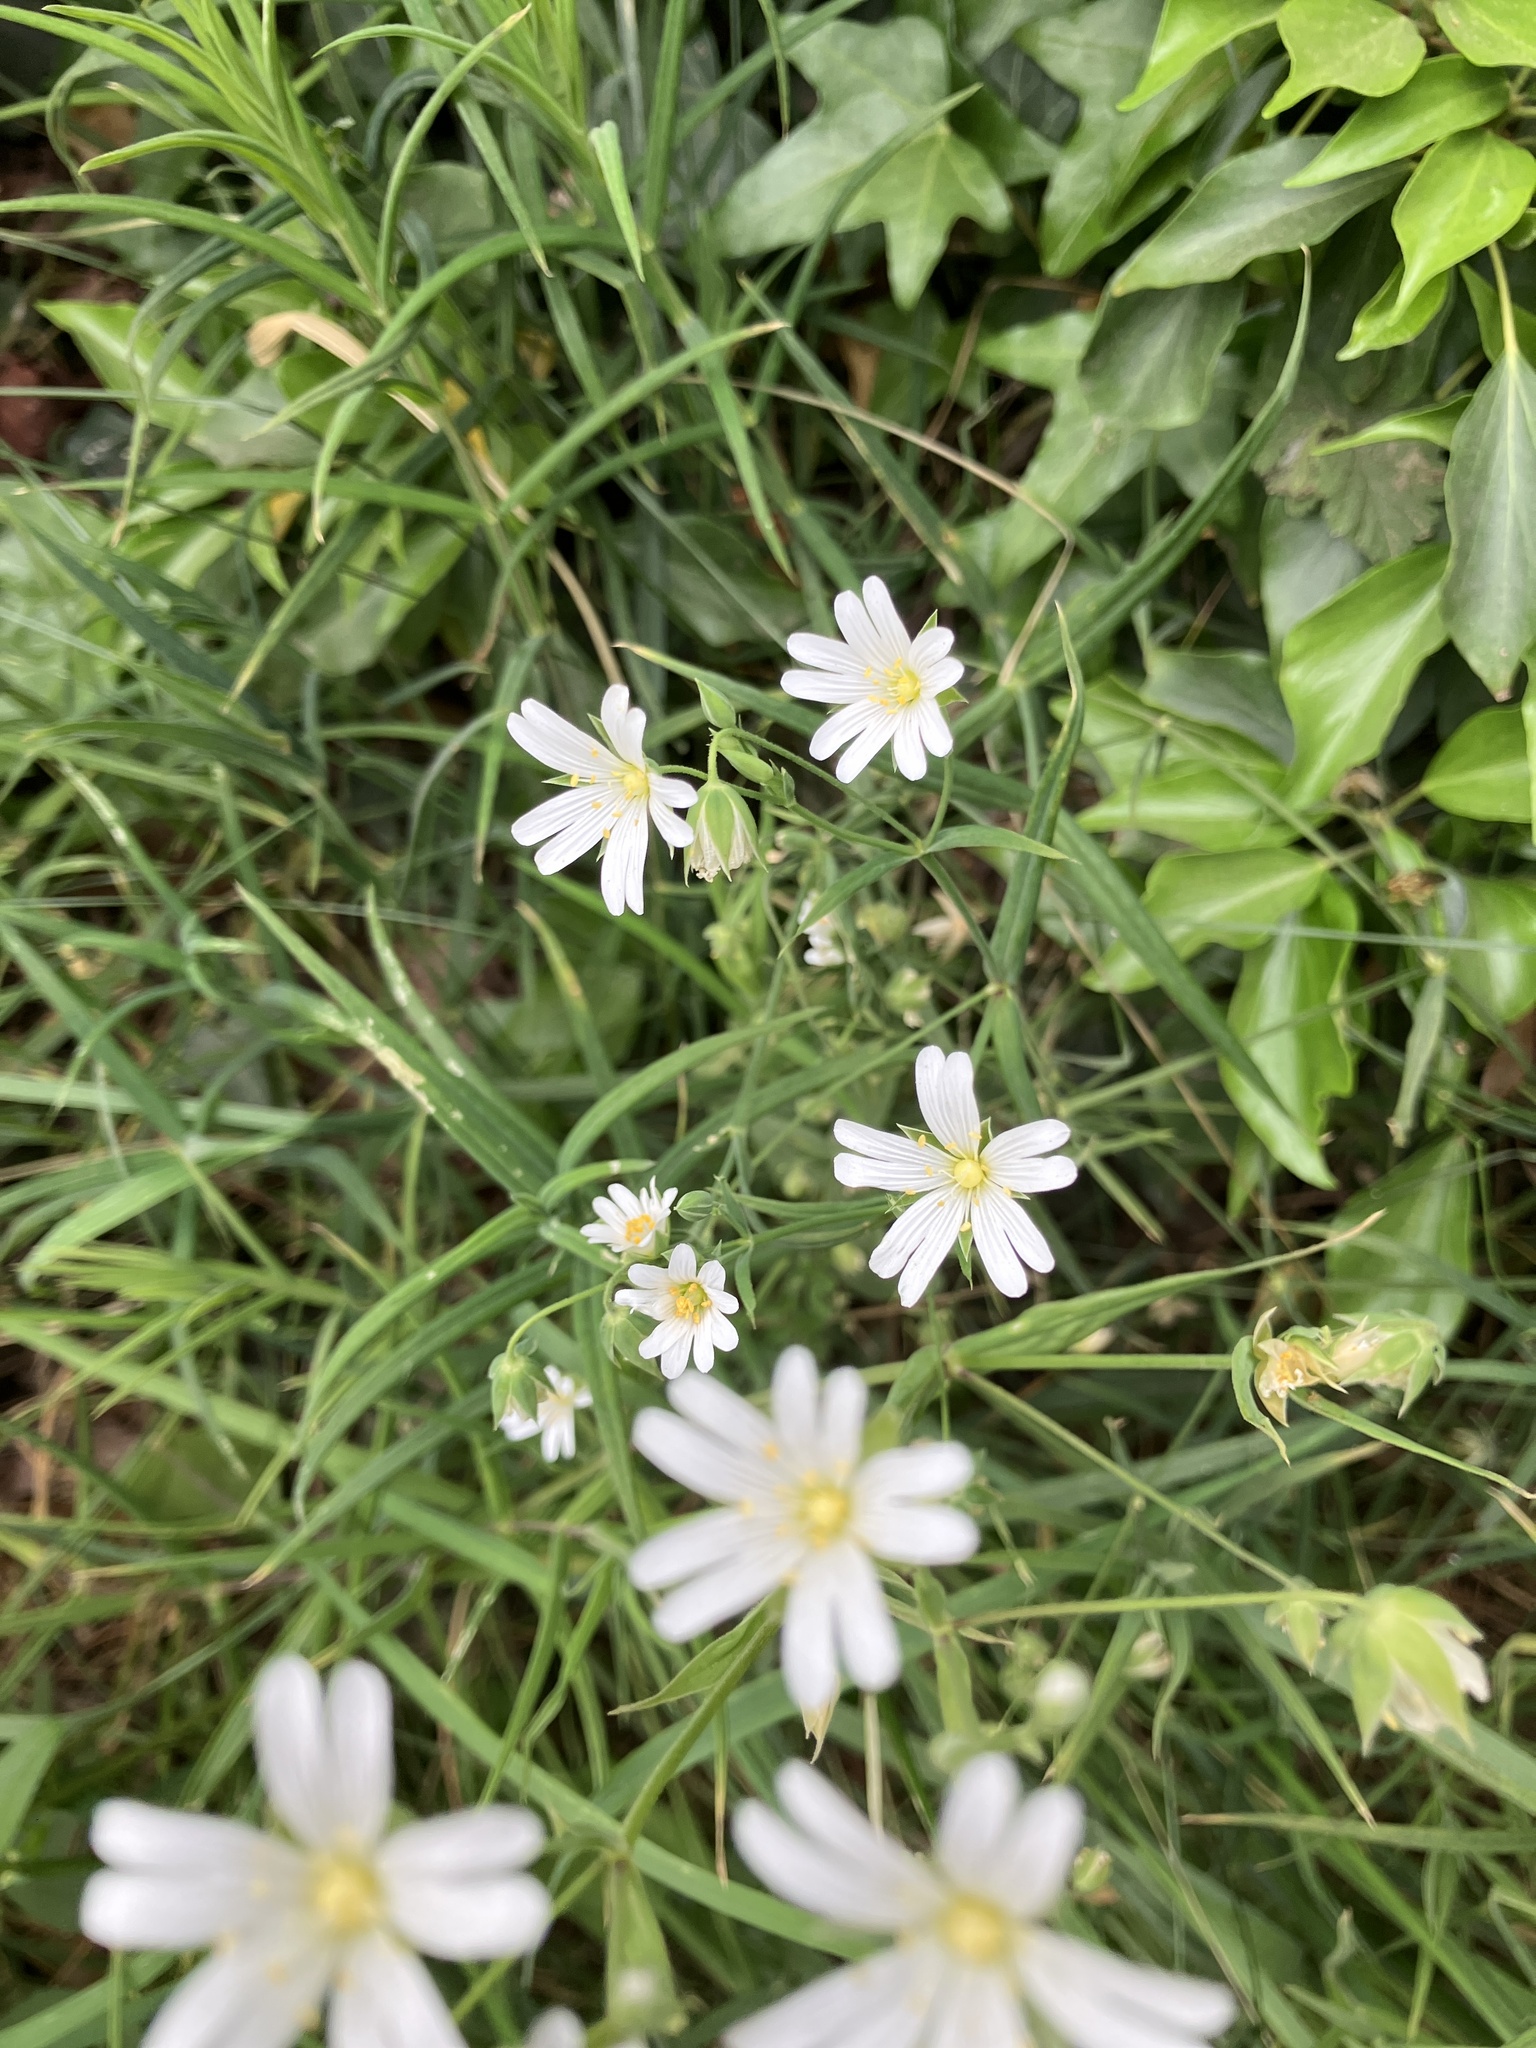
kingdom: Plantae
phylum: Tracheophyta
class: Magnoliopsida
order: Caryophyllales
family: Caryophyllaceae
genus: Rabelera
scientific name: Rabelera holostea
